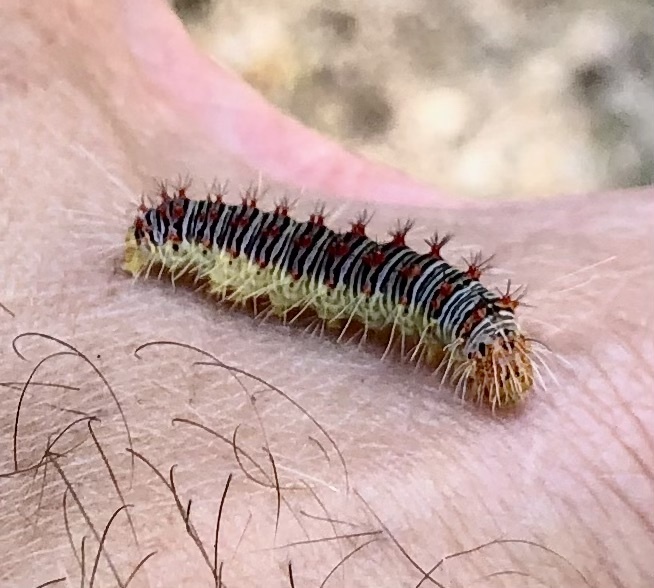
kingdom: Animalia
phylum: Arthropoda
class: Insecta
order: Lepidoptera
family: Noctuidae
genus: Acronicta
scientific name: Acronicta retardata
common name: Maple dagger
